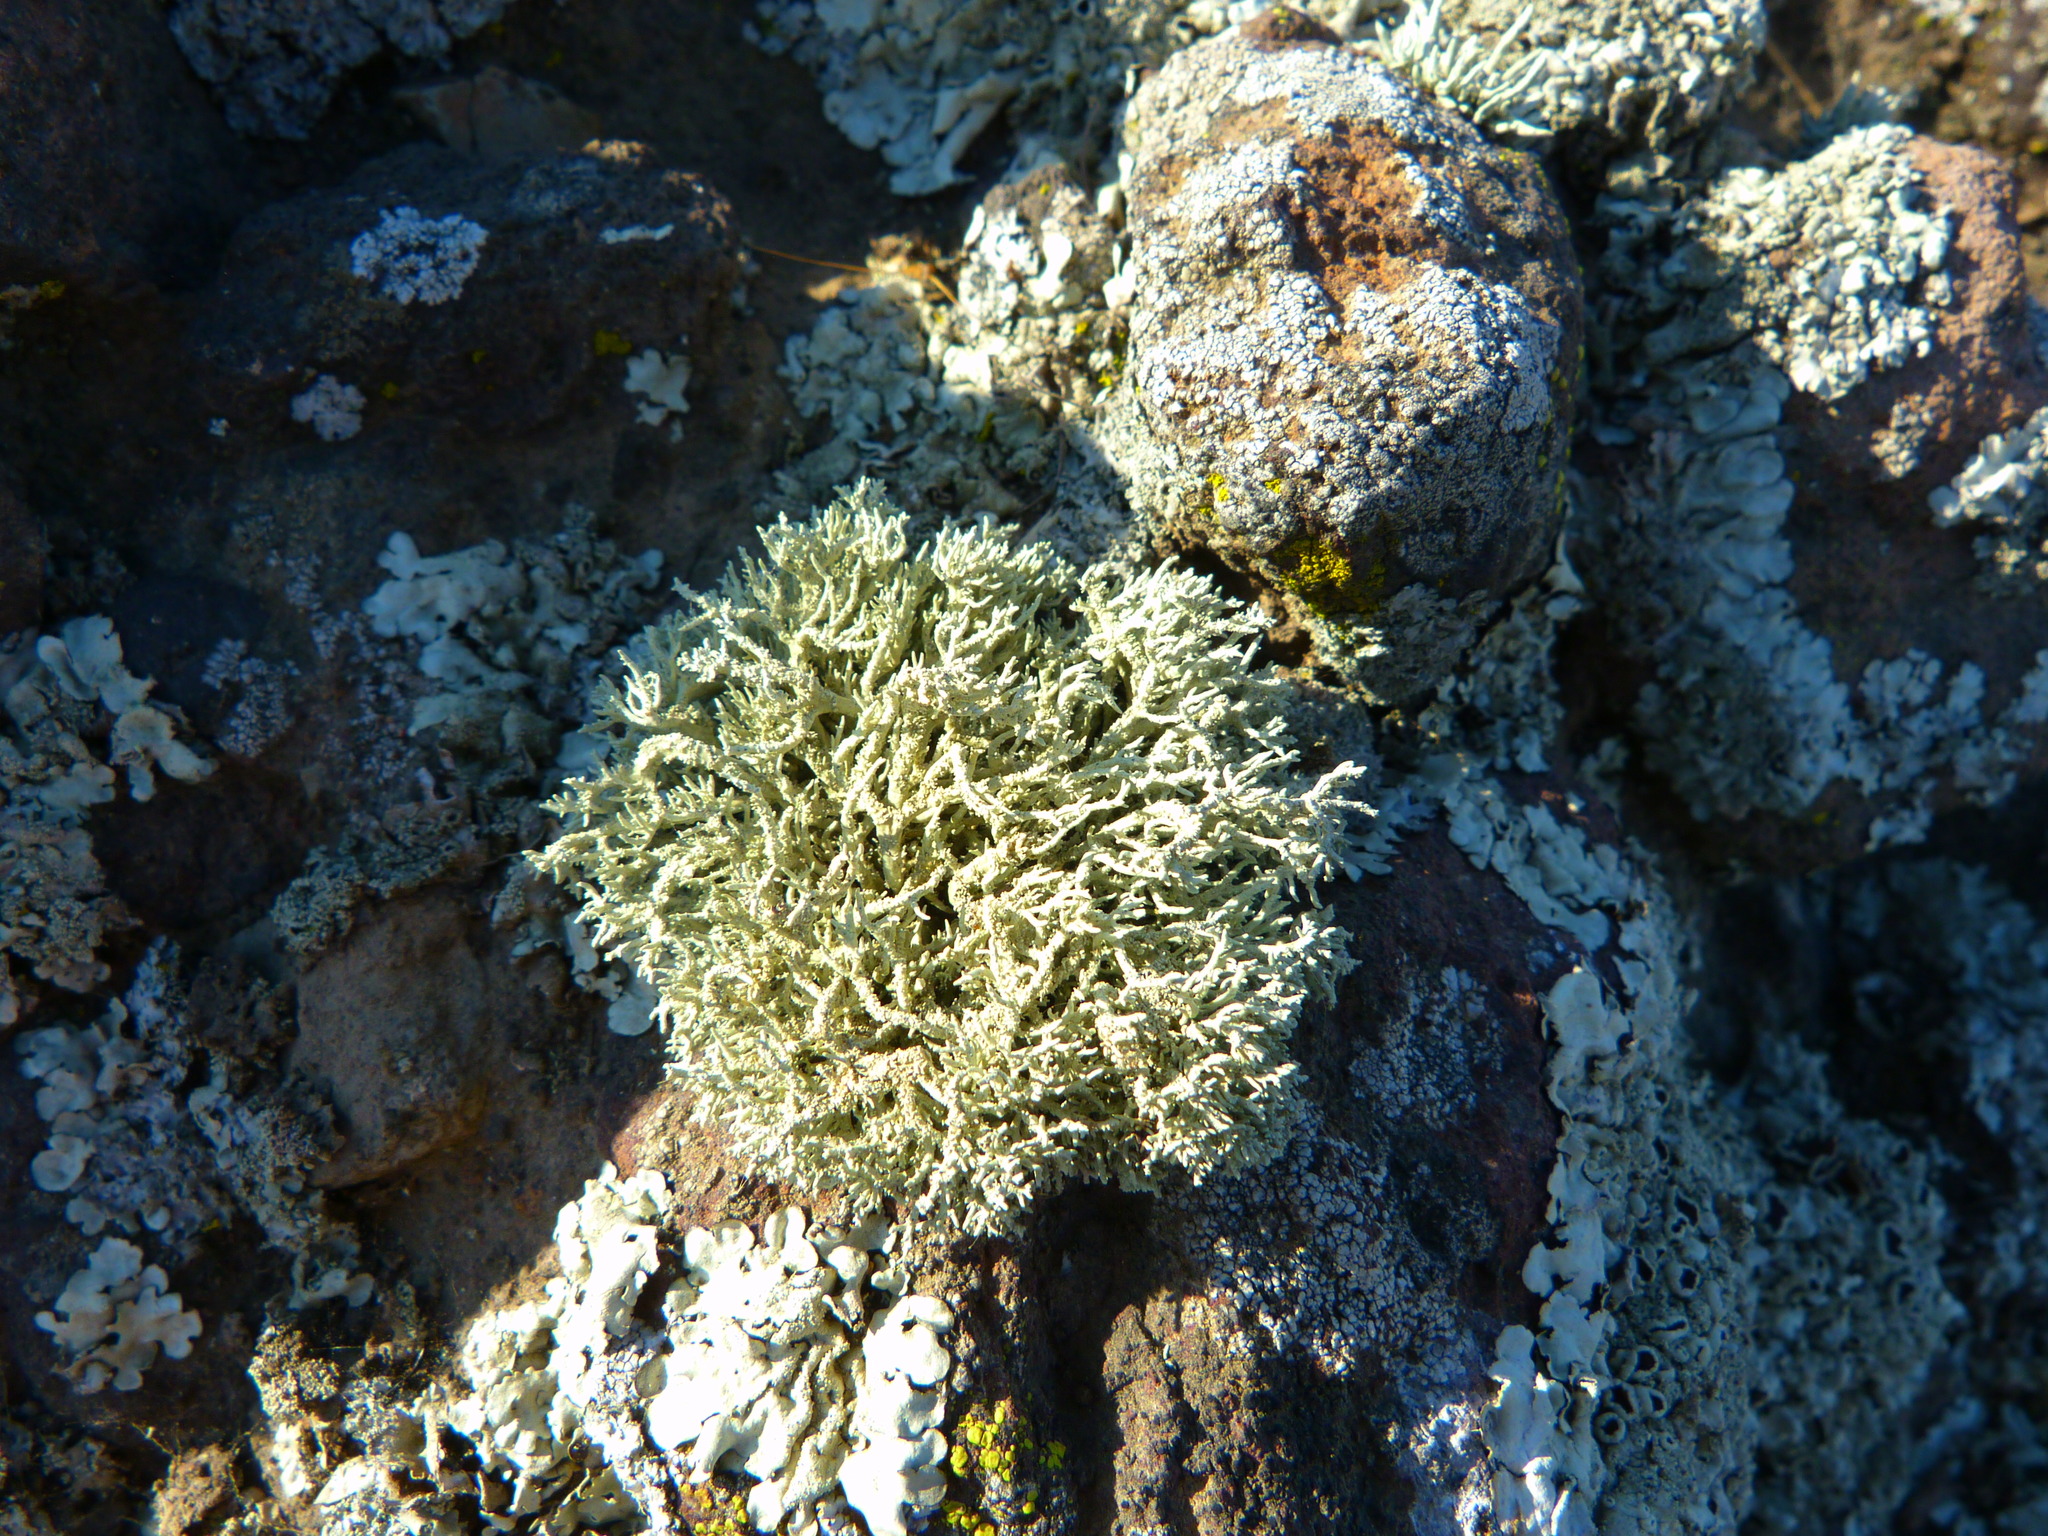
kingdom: Fungi
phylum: Ascomycota
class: Lecanoromycetes
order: Lecanorales
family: Ramalinaceae
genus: Niebla
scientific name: Niebla isidiaescens
